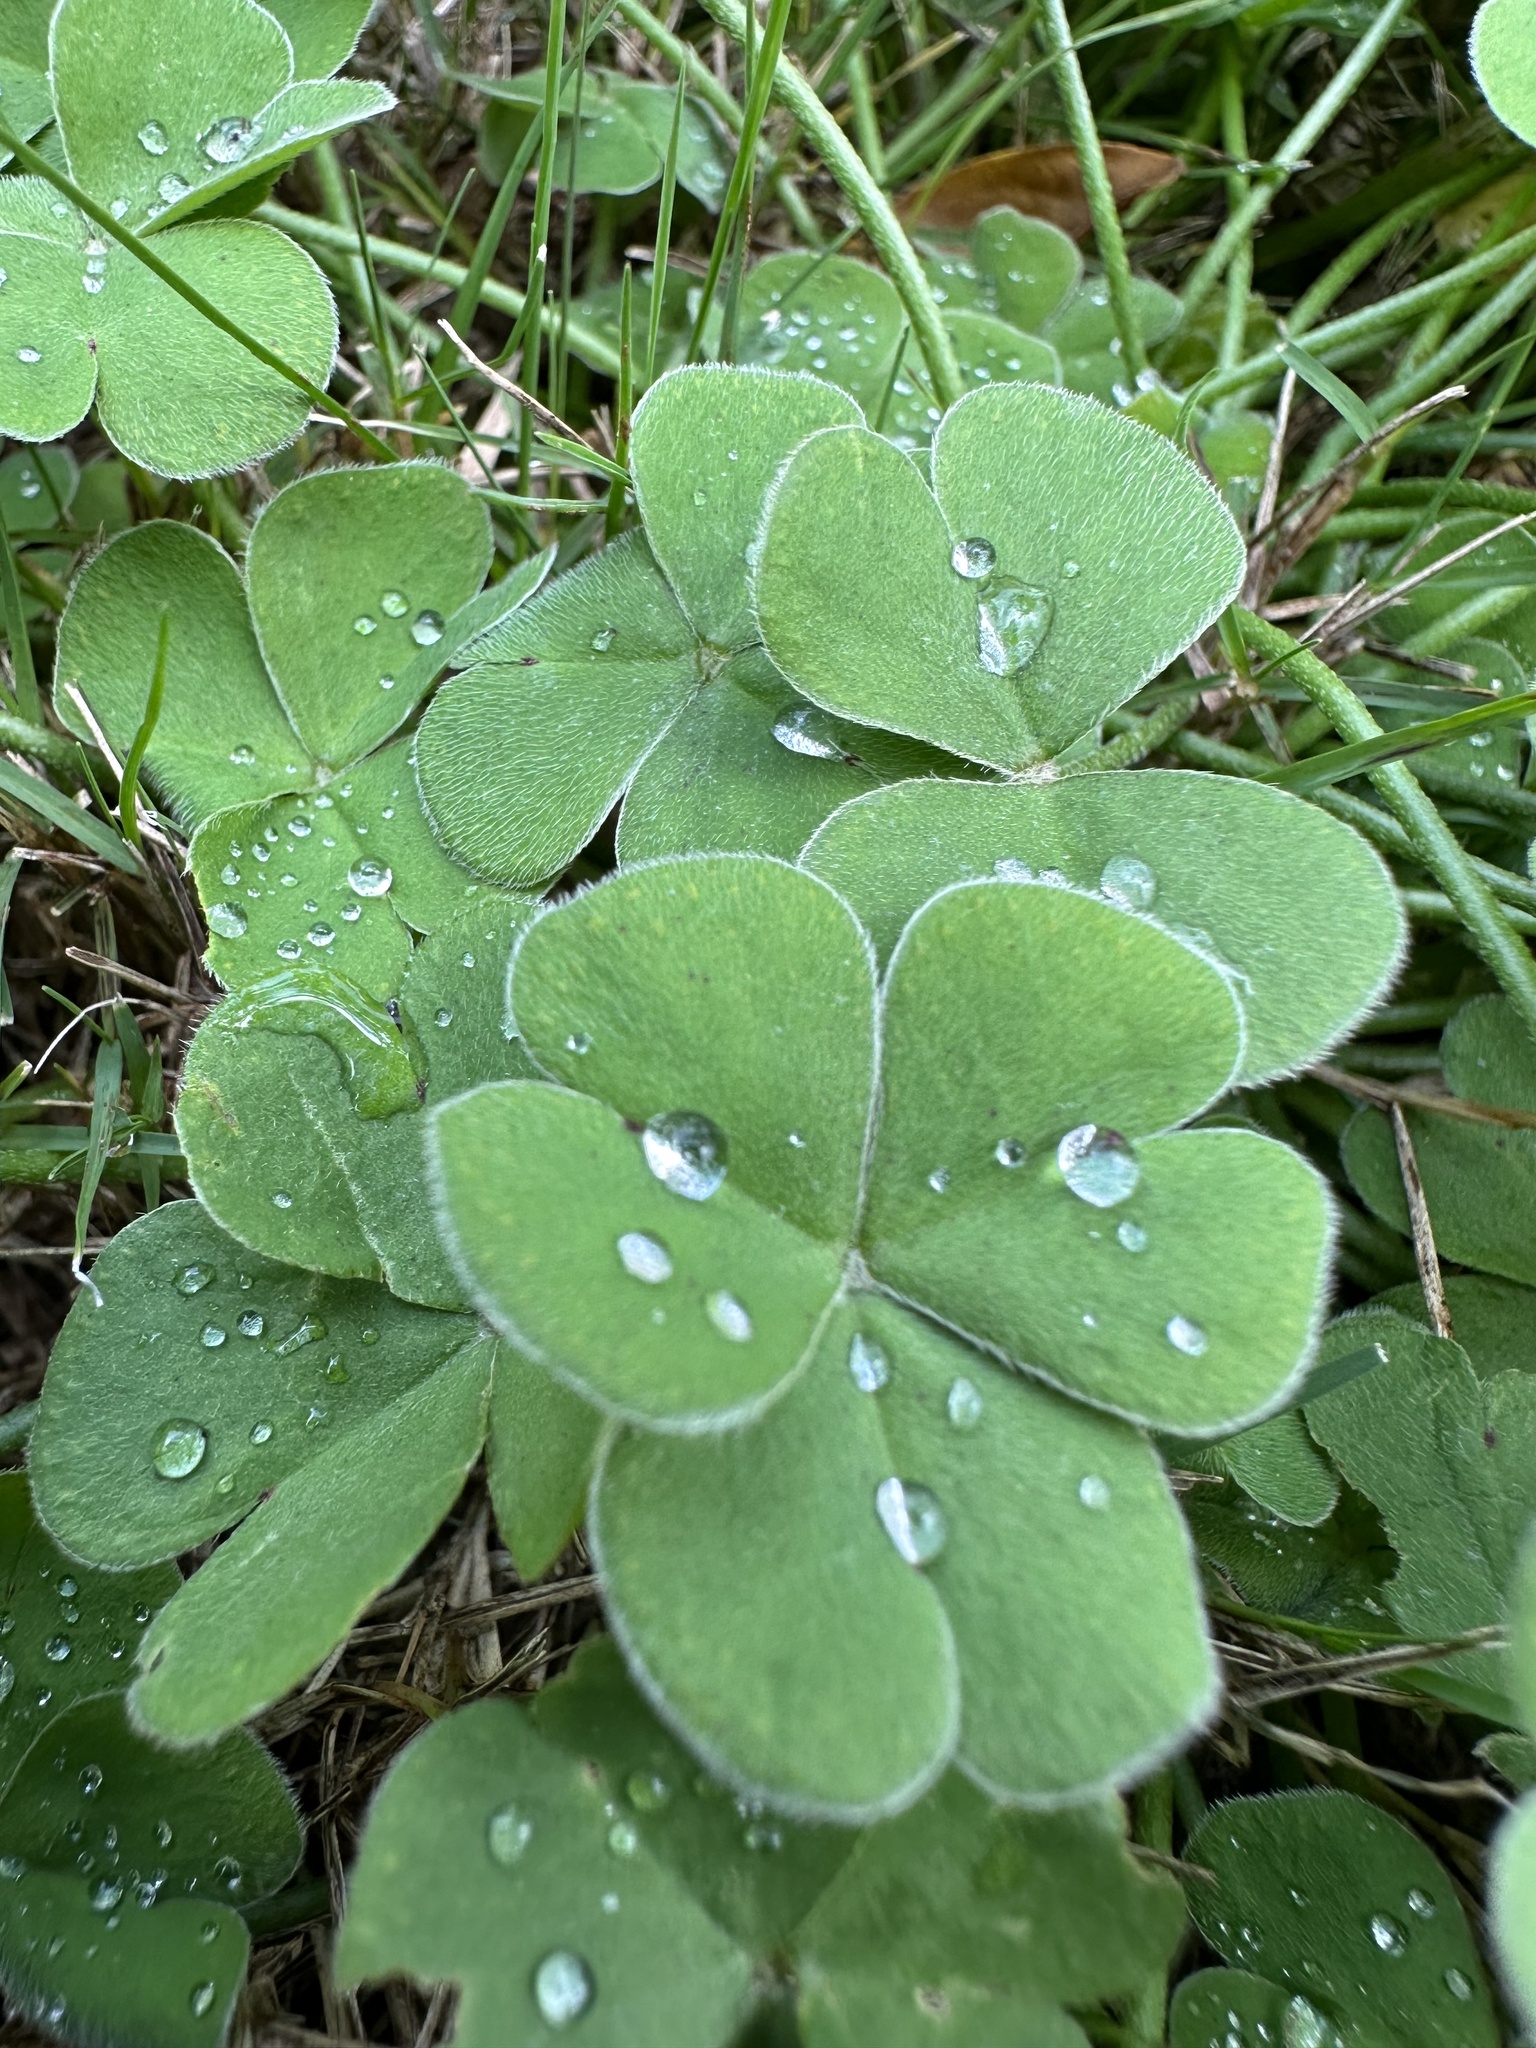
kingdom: Plantae
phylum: Tracheophyta
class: Magnoliopsida
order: Oxalidales
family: Oxalidaceae
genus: Oxalis
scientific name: Oxalis debilis
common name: Large-flowered pink-sorrel
